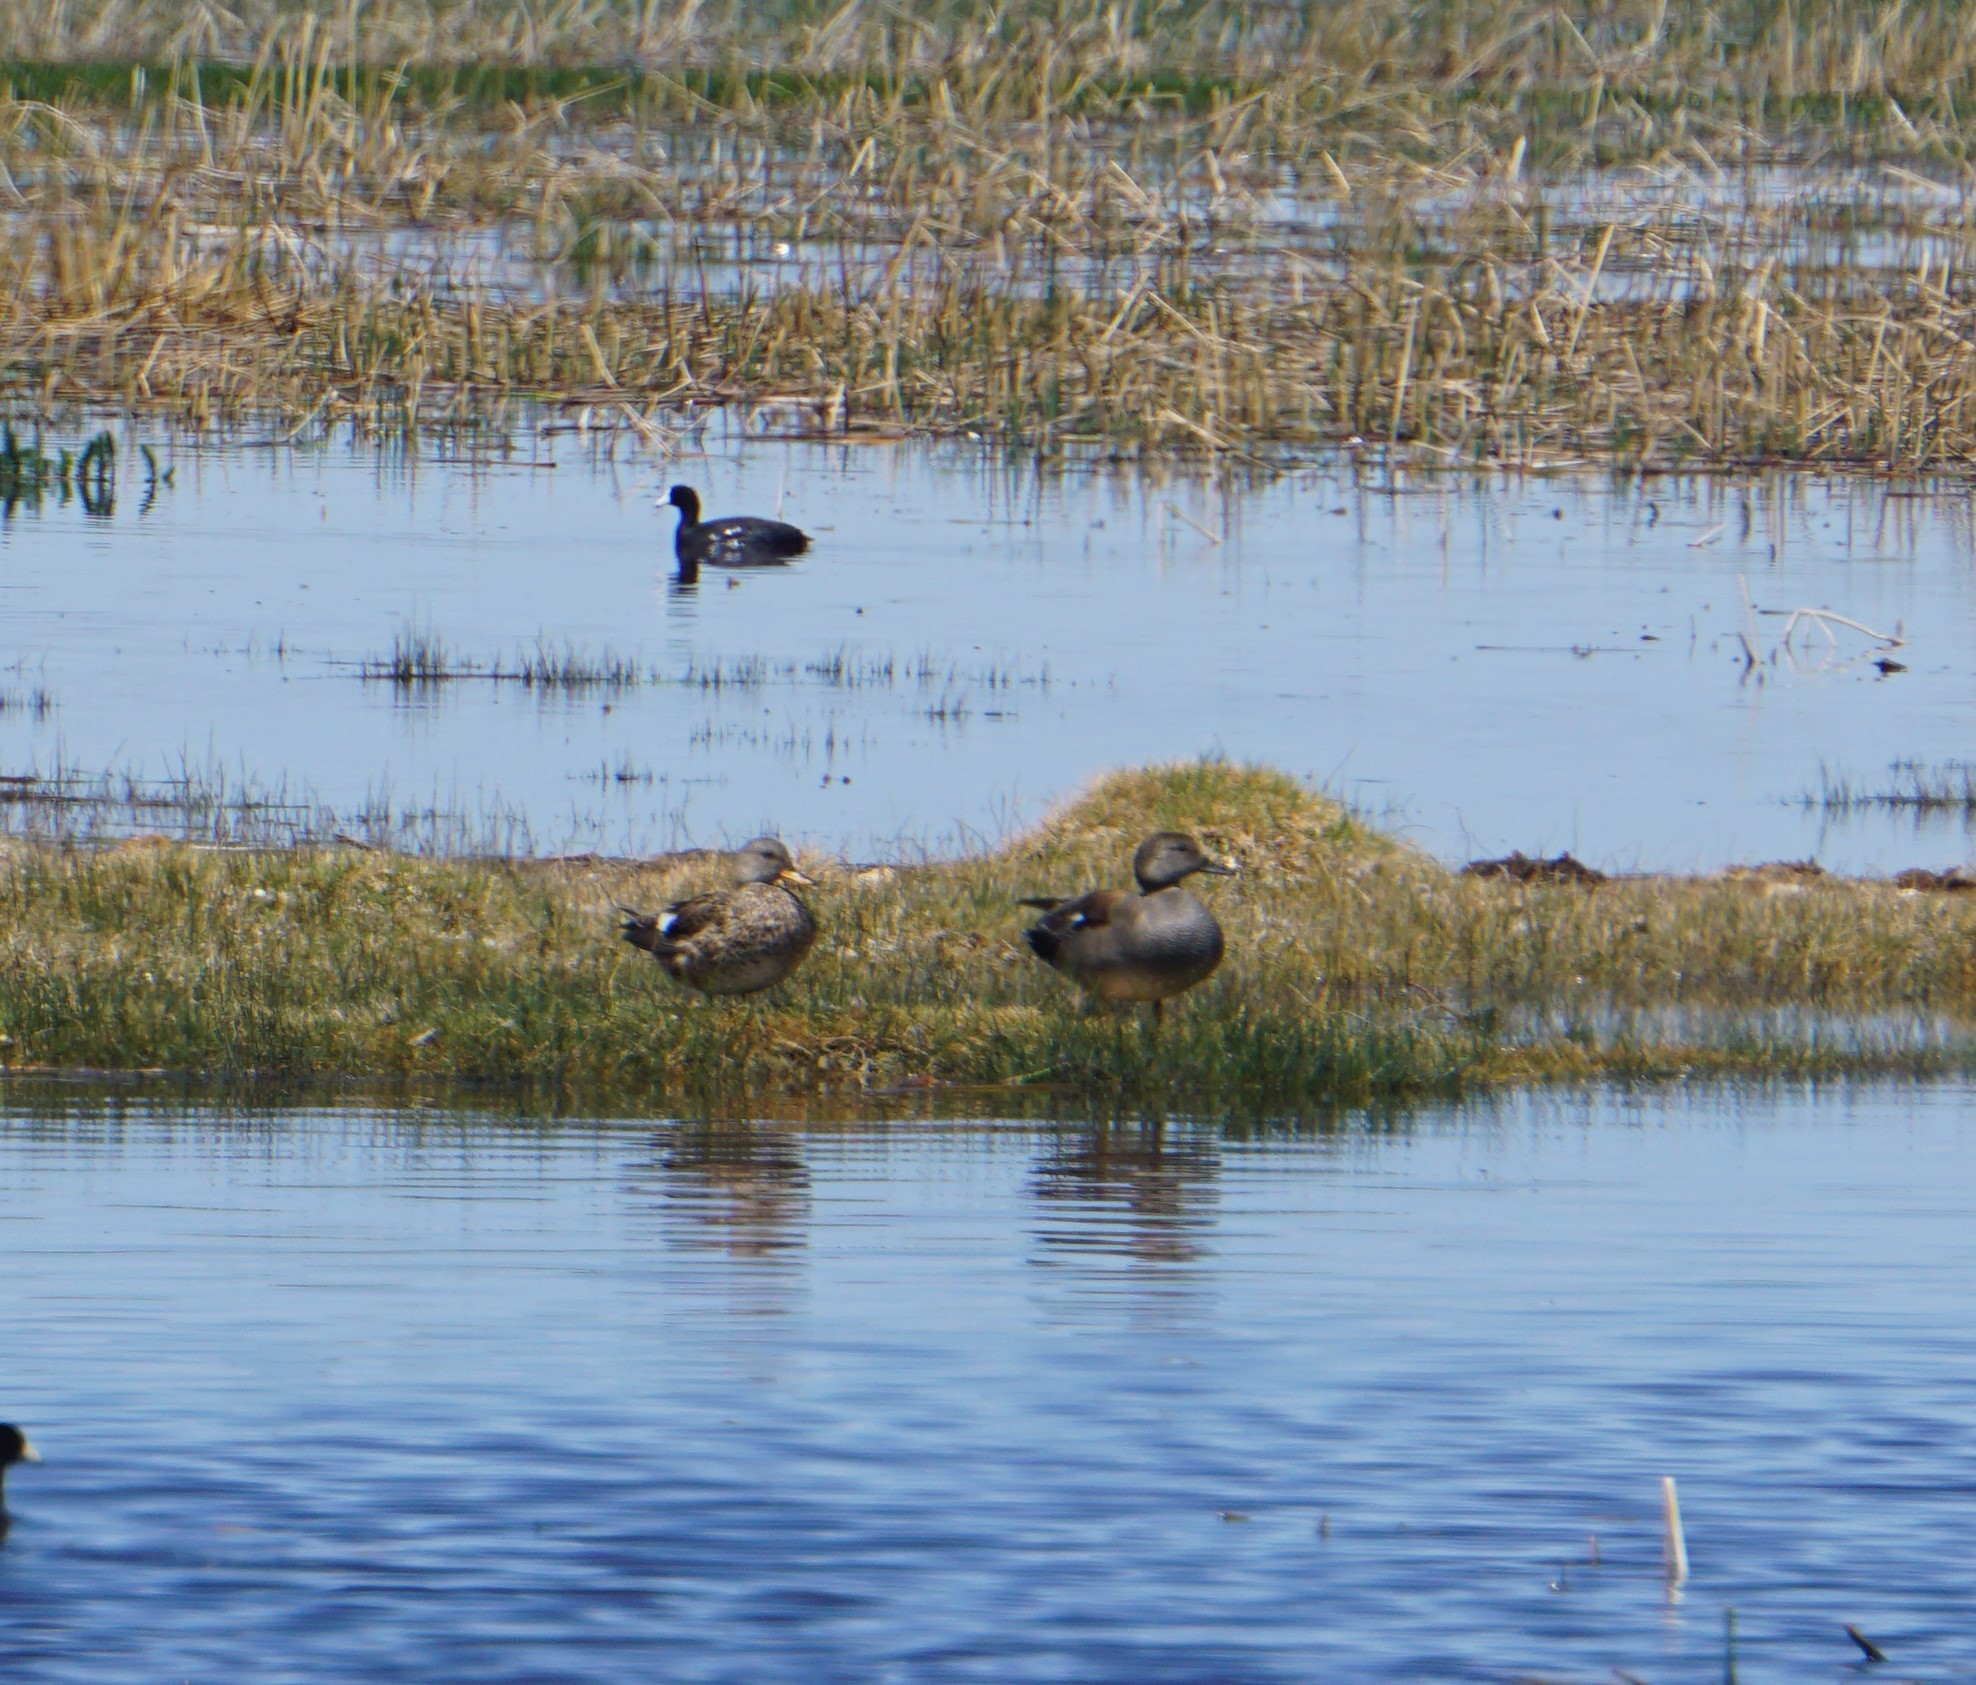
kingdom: Animalia
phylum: Chordata
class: Aves
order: Anseriformes
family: Anatidae
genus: Mareca
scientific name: Mareca strepera
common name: Gadwall
